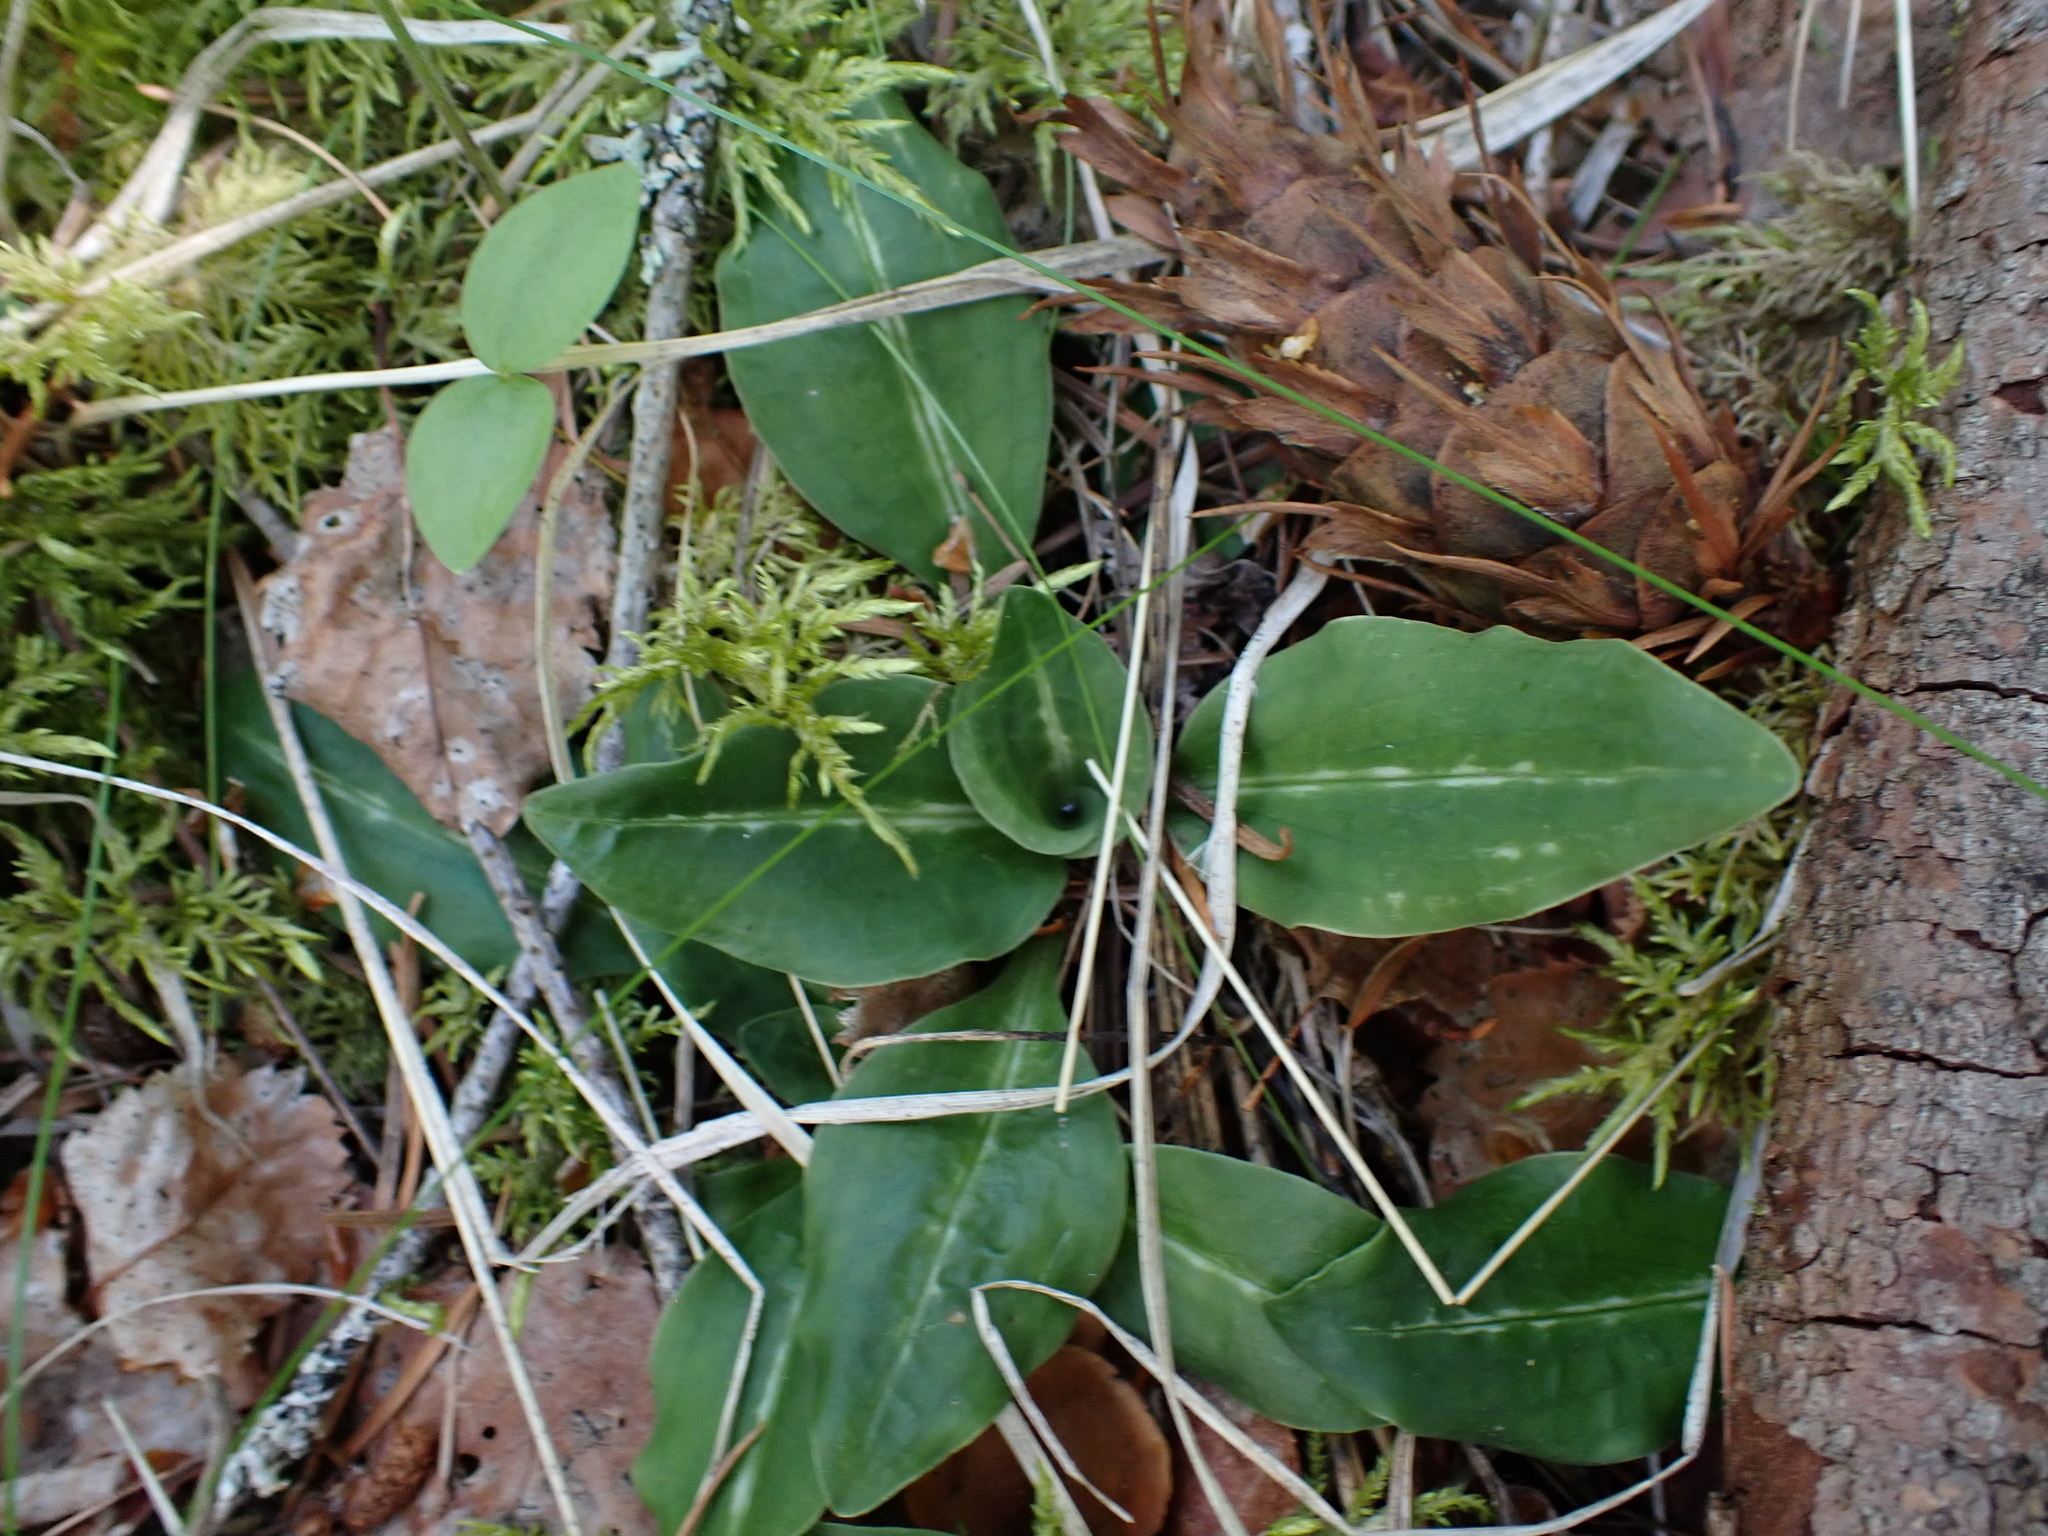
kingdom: Plantae
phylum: Tracheophyta
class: Liliopsida
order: Asparagales
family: Orchidaceae
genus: Goodyera
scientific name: Goodyera oblongifolia
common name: Giant rattlesnake-plantain
